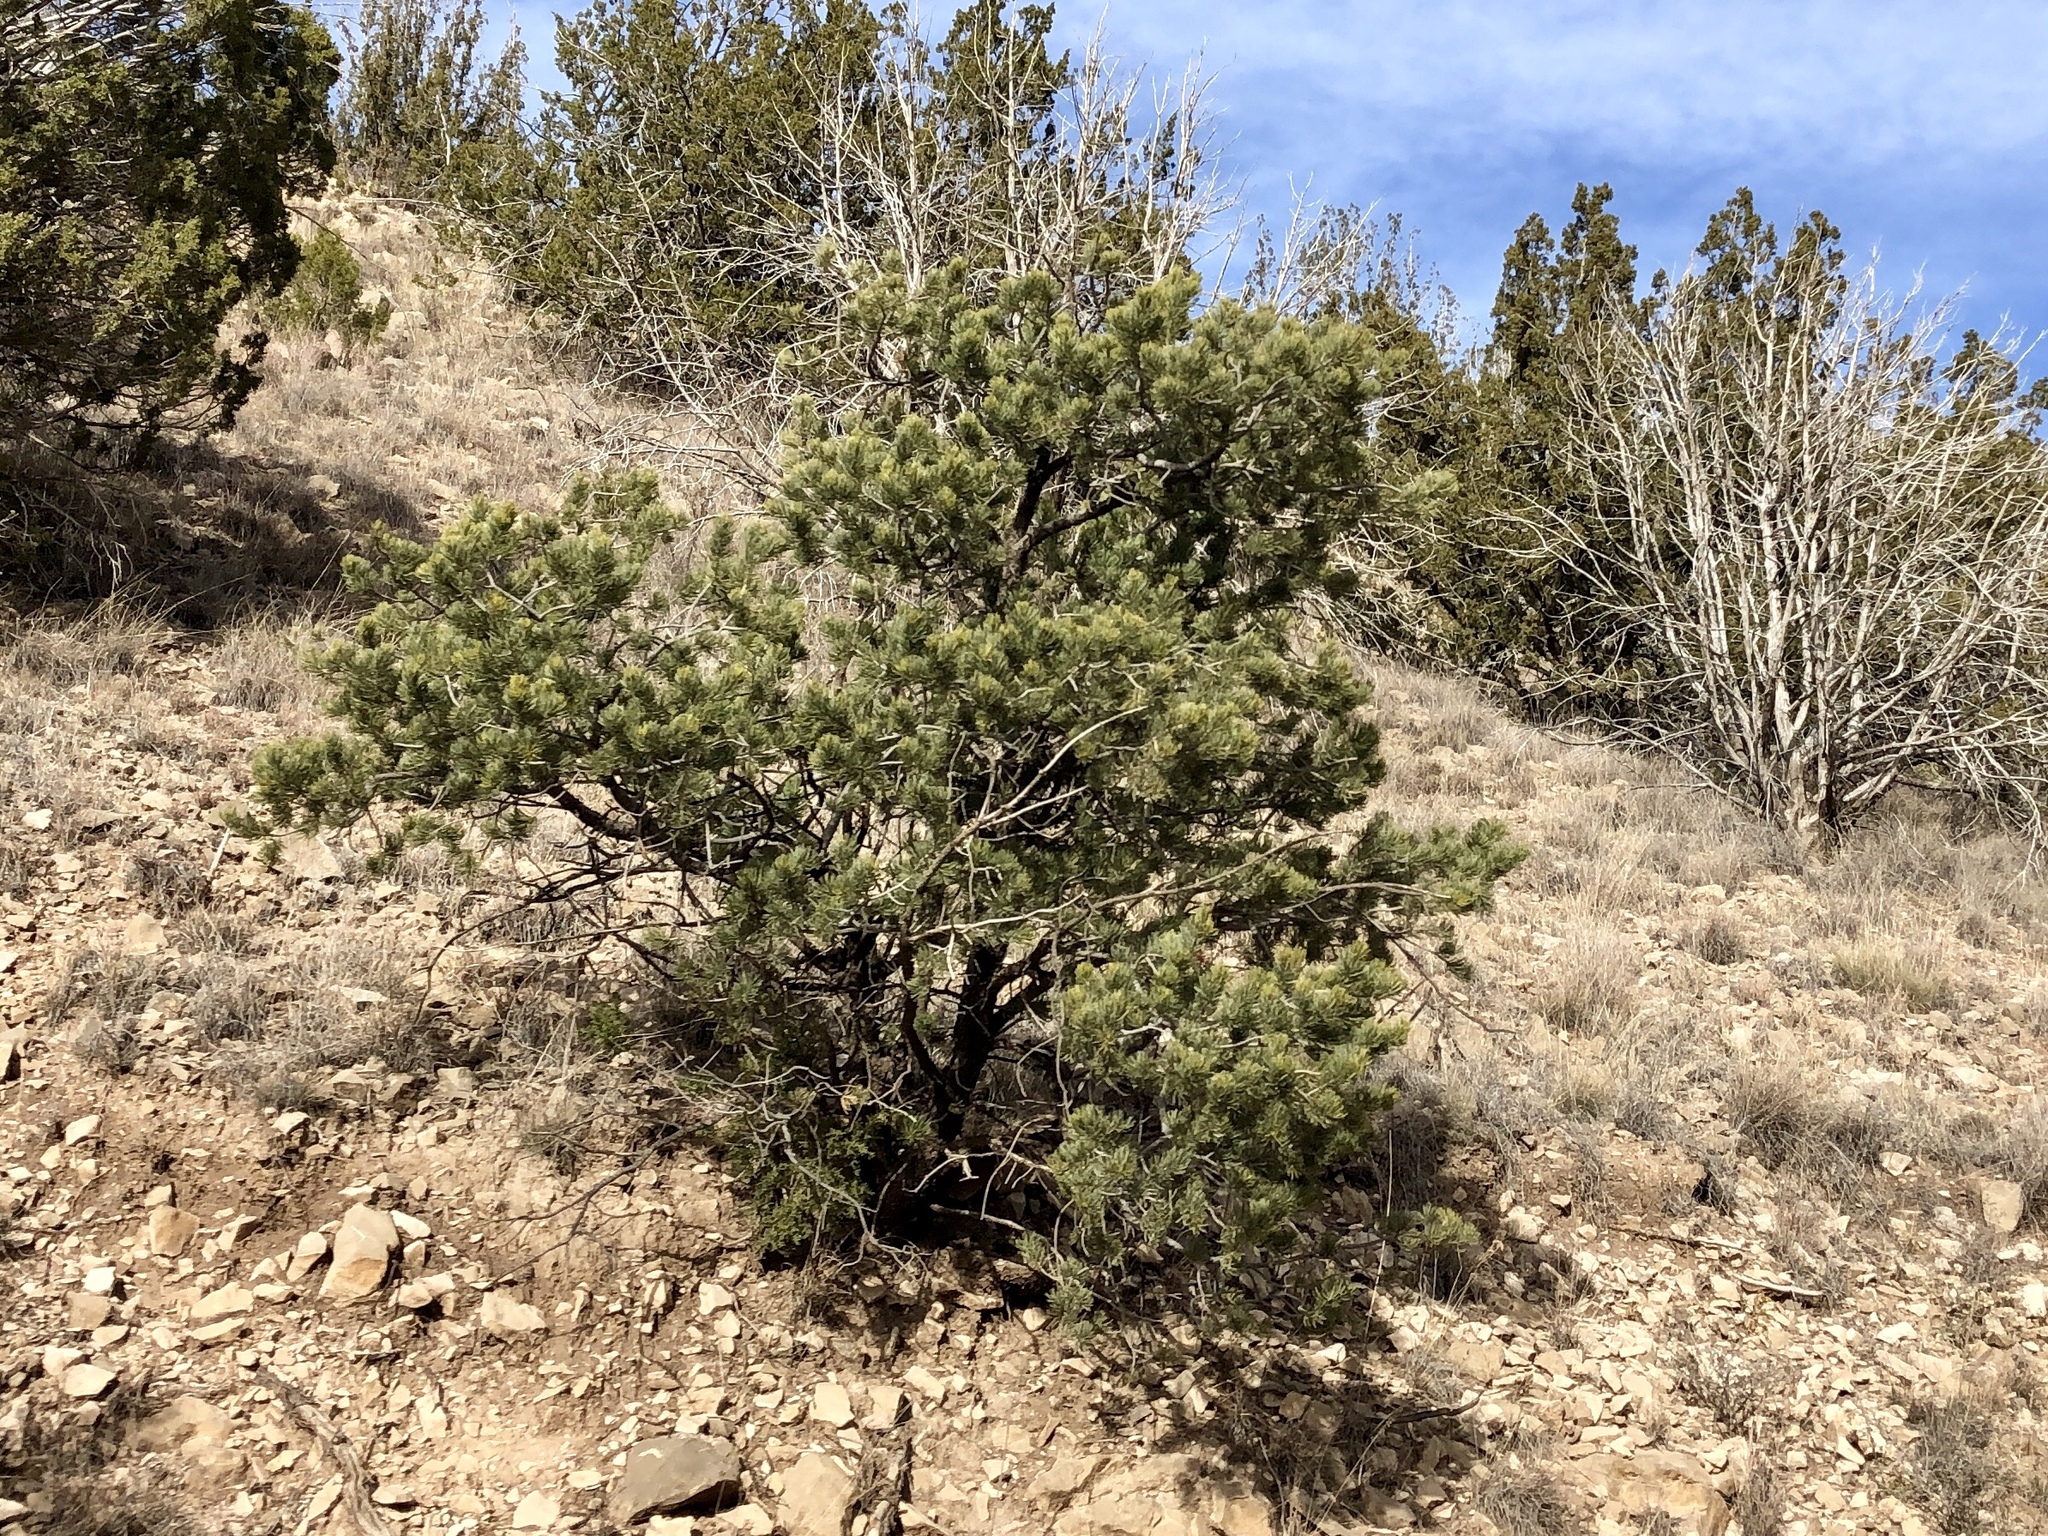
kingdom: Plantae
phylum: Tracheophyta
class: Pinopsida
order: Pinales
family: Pinaceae
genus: Pinus
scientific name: Pinus edulis
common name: Colorado pinyon
